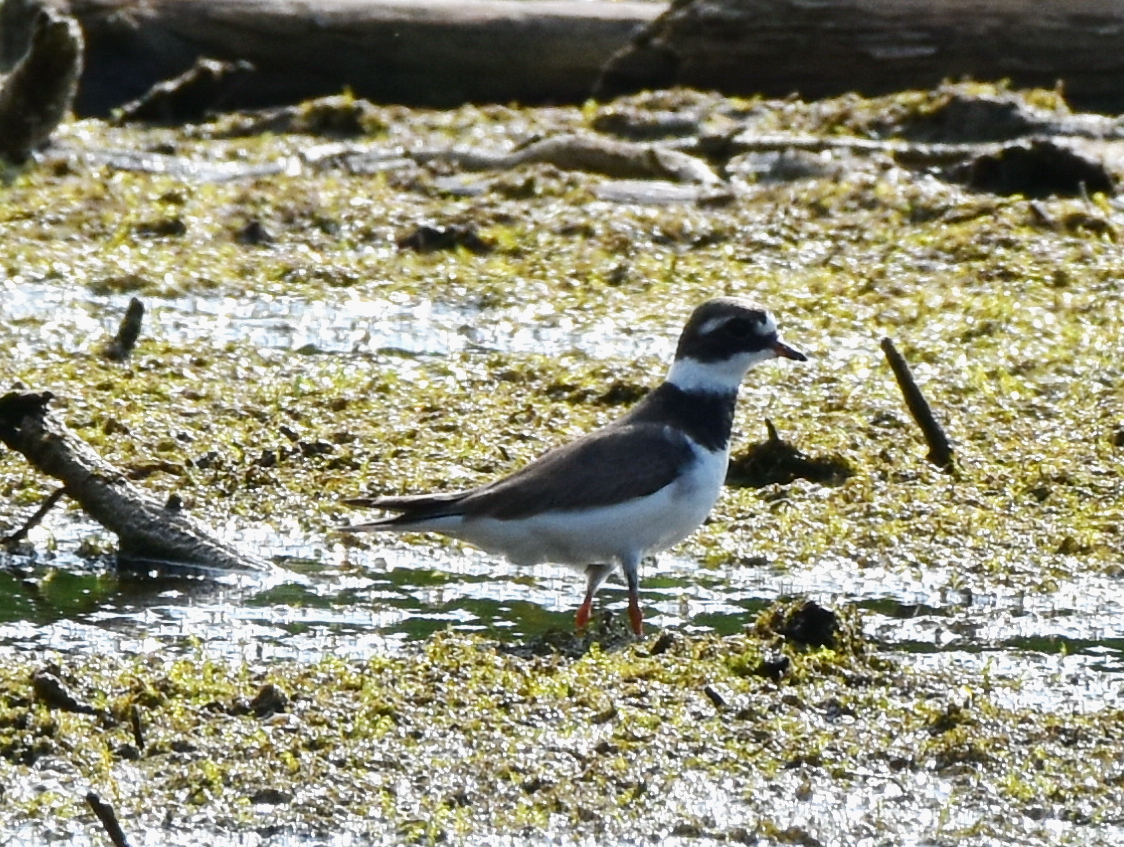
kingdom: Animalia
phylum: Chordata
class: Aves
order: Charadriiformes
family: Charadriidae
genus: Charadrius
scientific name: Charadrius hiaticula
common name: Common ringed plover
